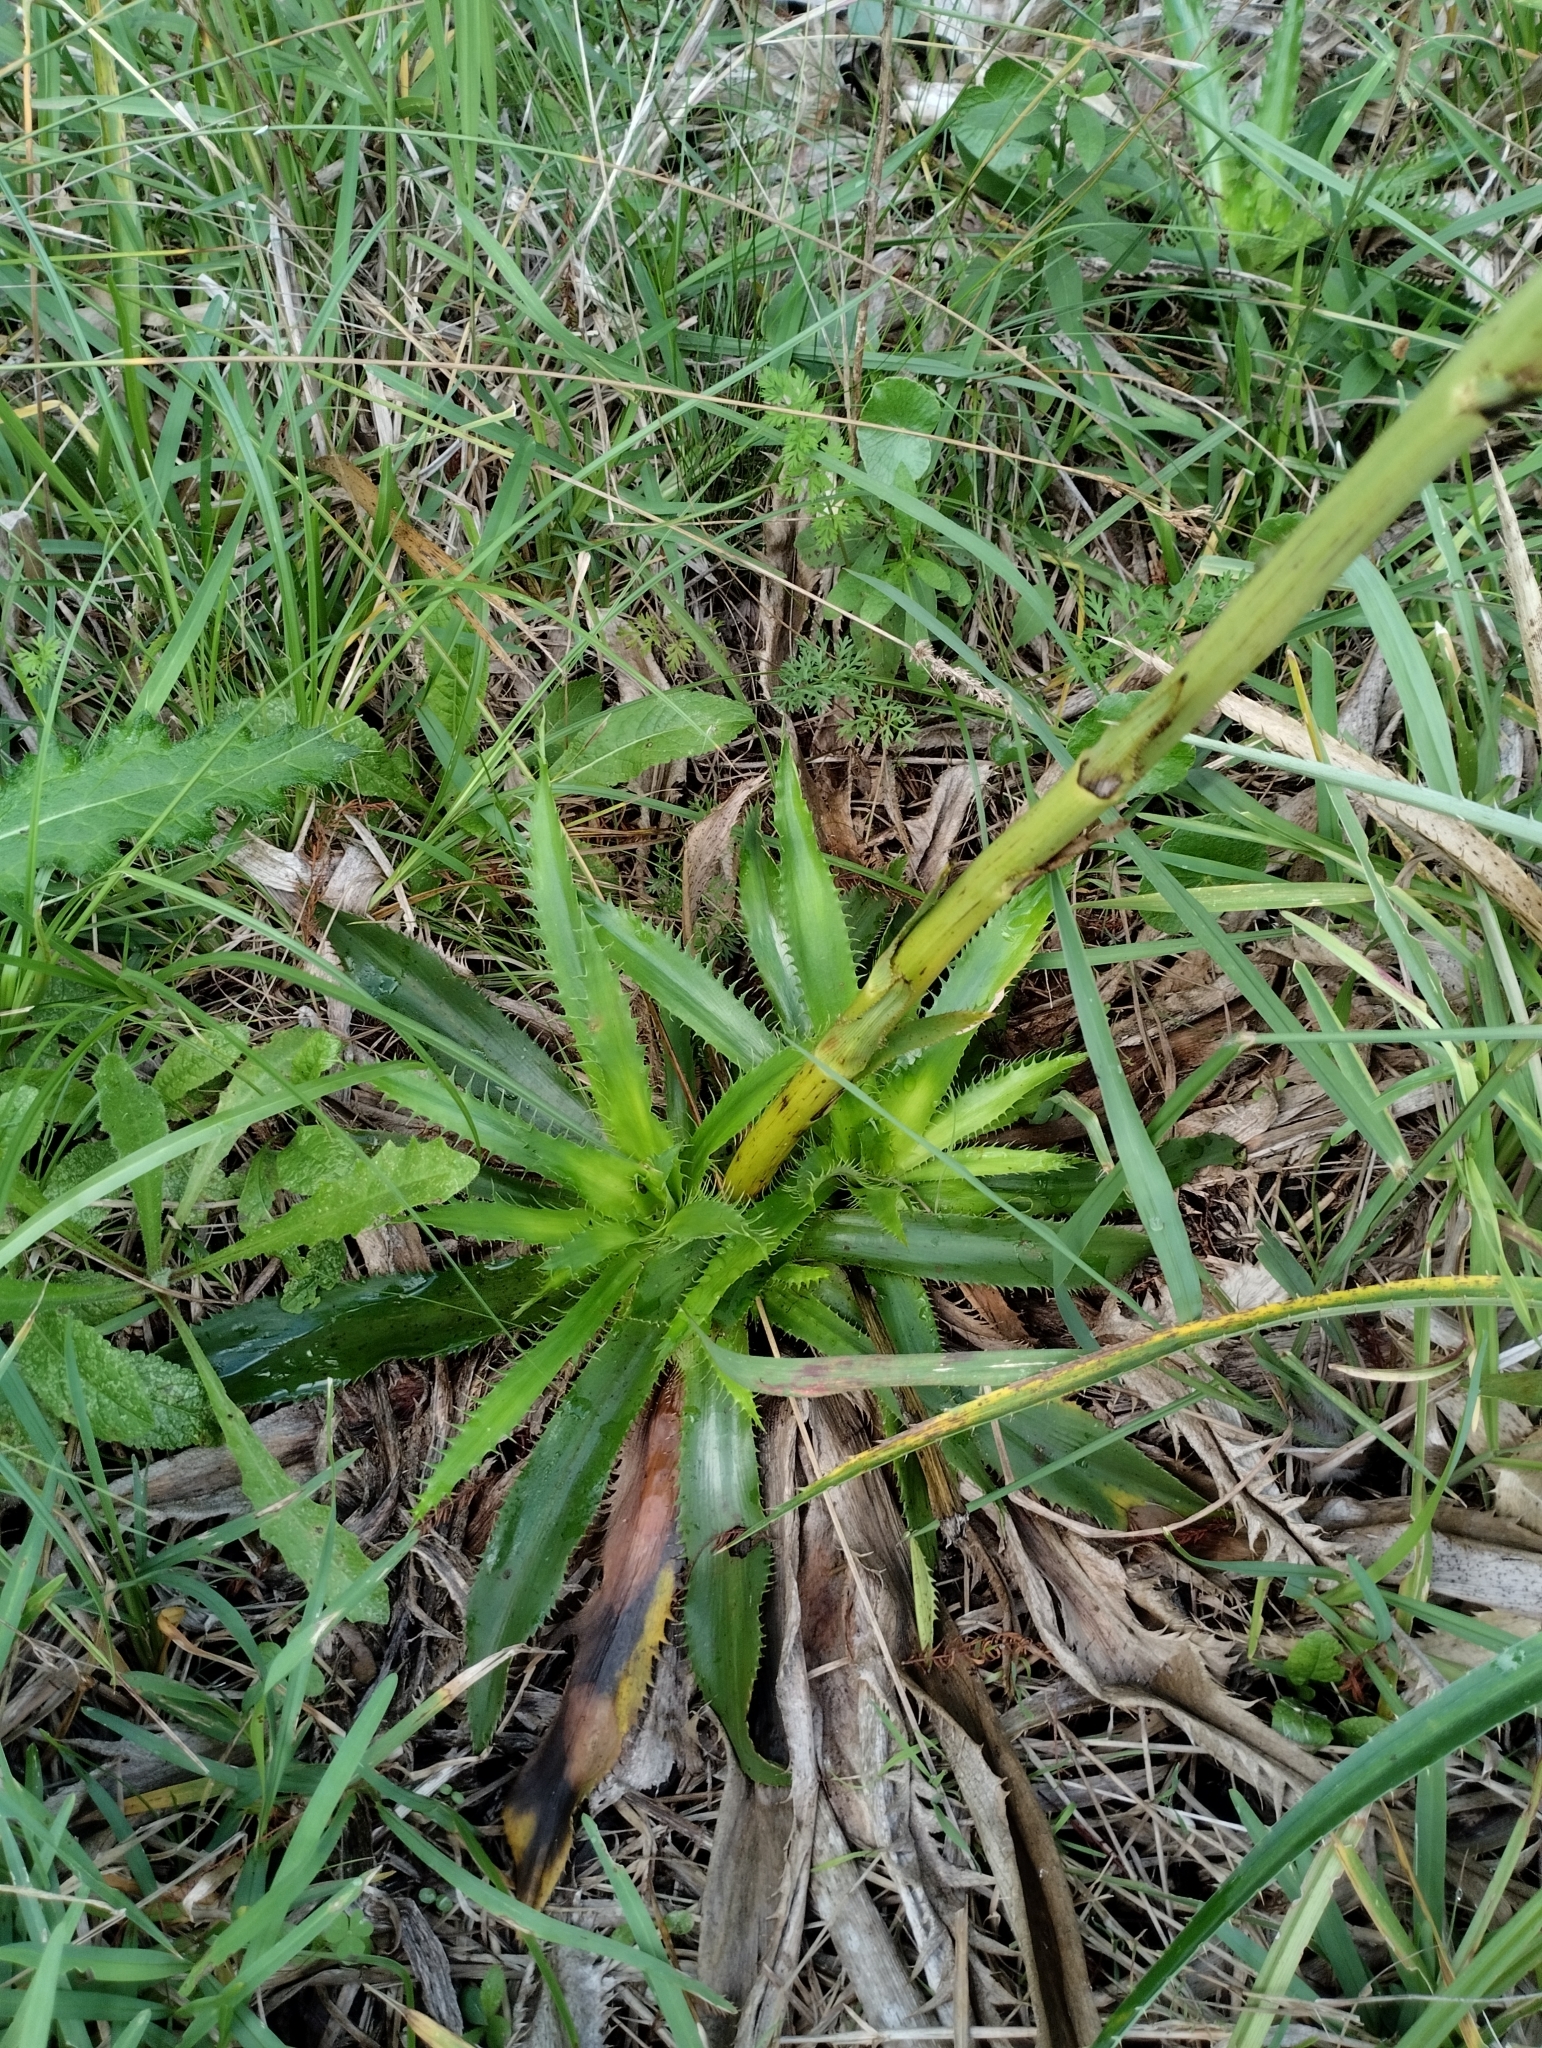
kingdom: Plantae
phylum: Tracheophyta
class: Magnoliopsida
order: Apiales
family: Apiaceae
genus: Eryngium
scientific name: Eryngium serra
